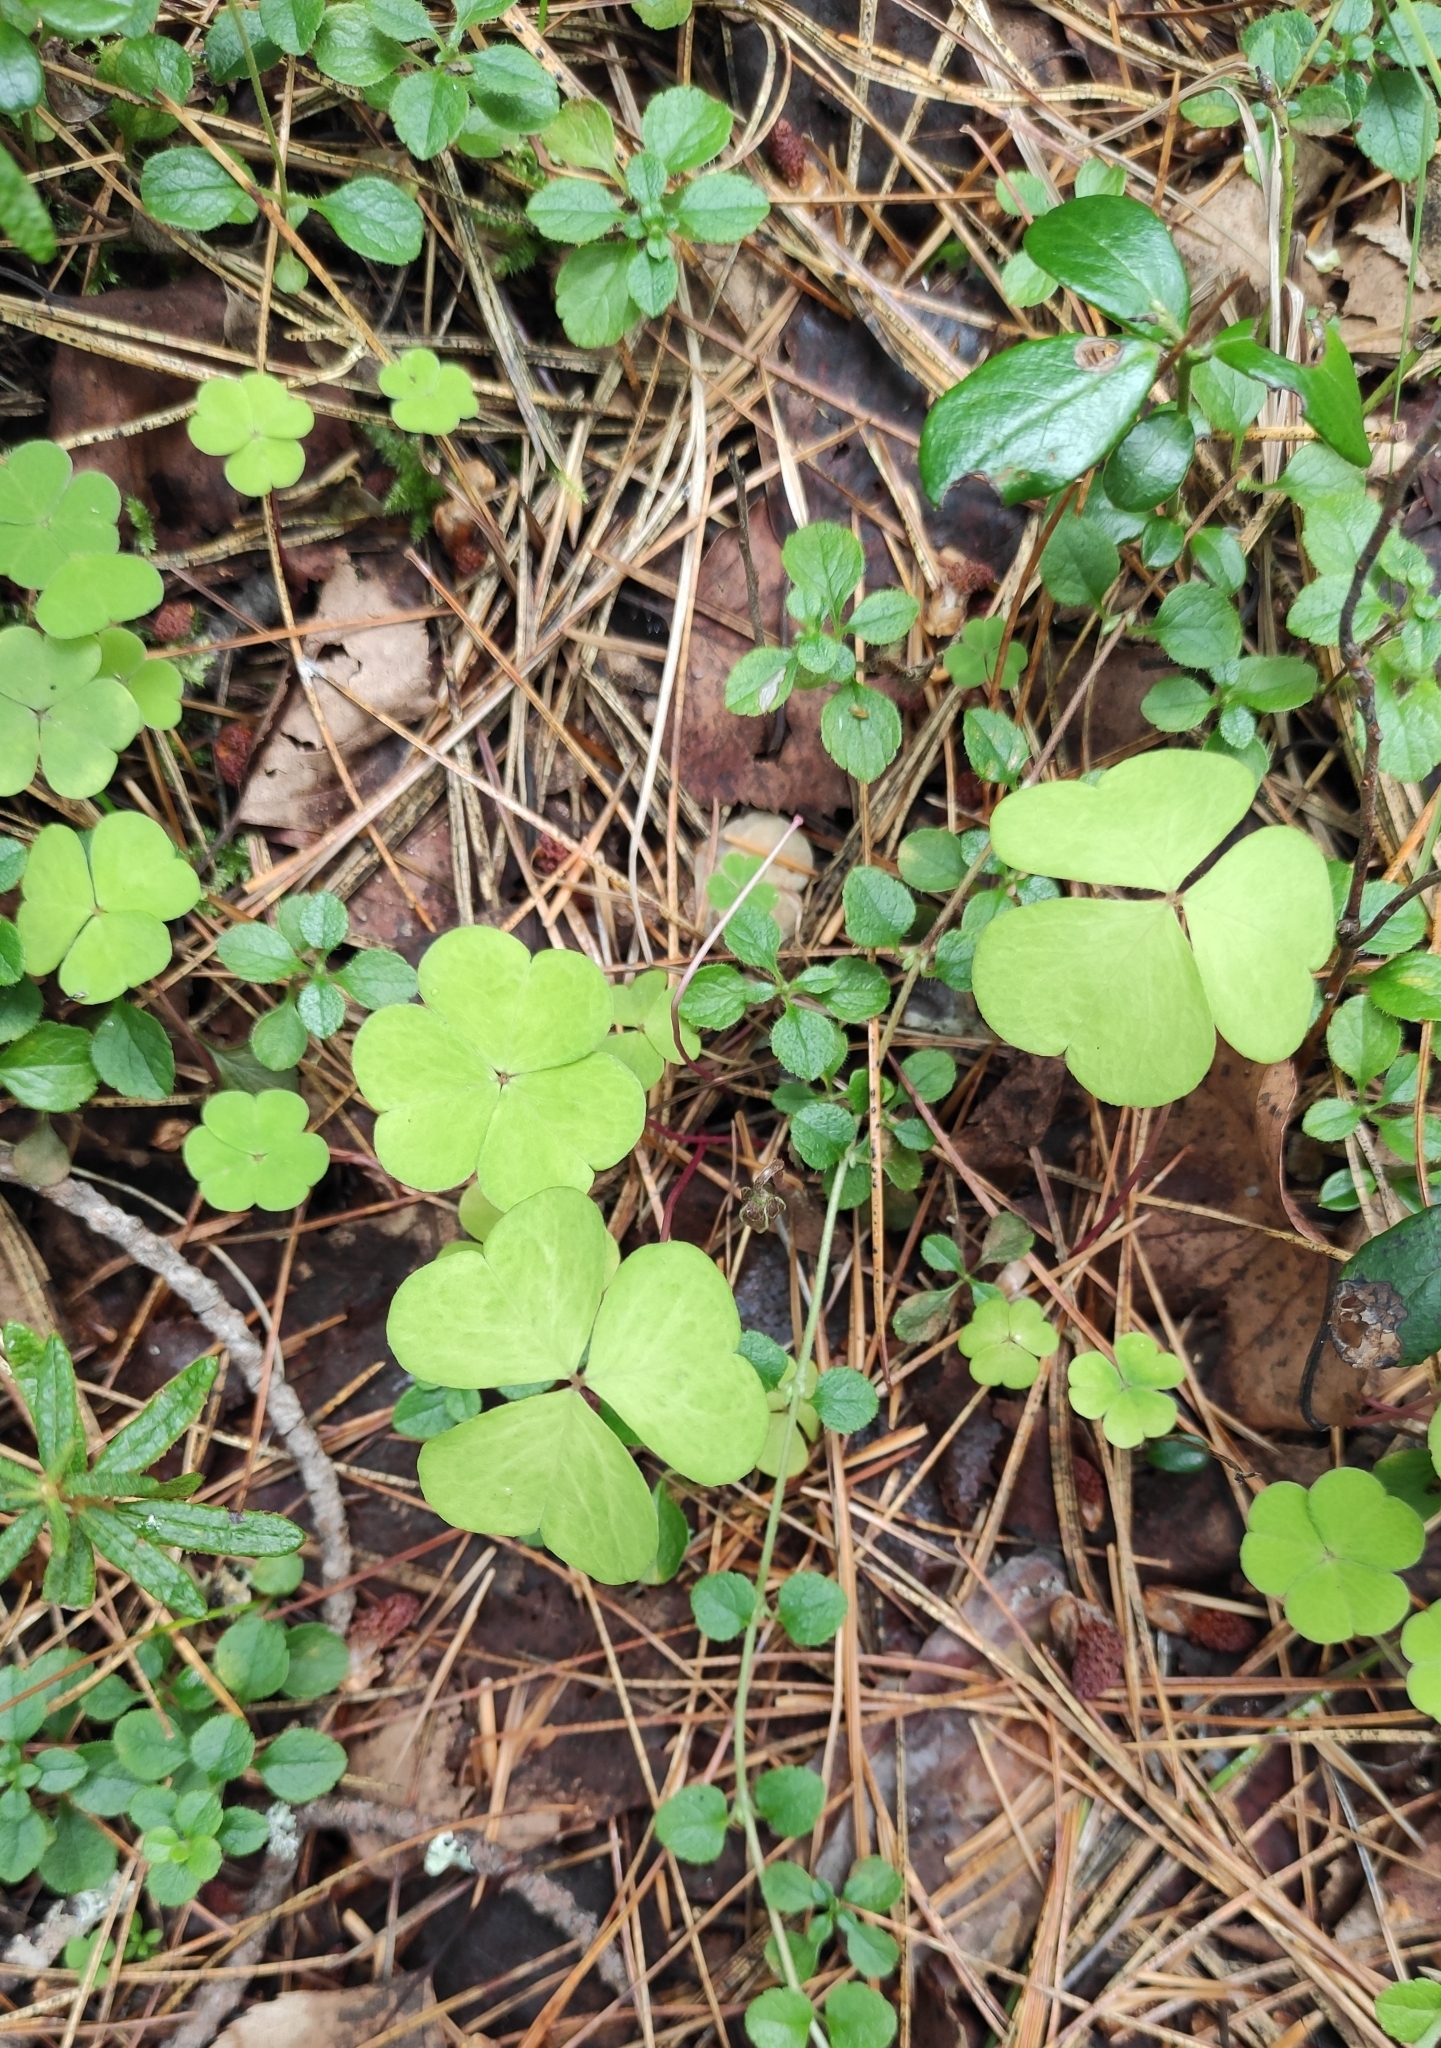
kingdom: Plantae
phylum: Tracheophyta
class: Magnoliopsida
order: Oxalidales
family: Oxalidaceae
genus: Oxalis
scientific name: Oxalis acetosella
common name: Wood-sorrel
